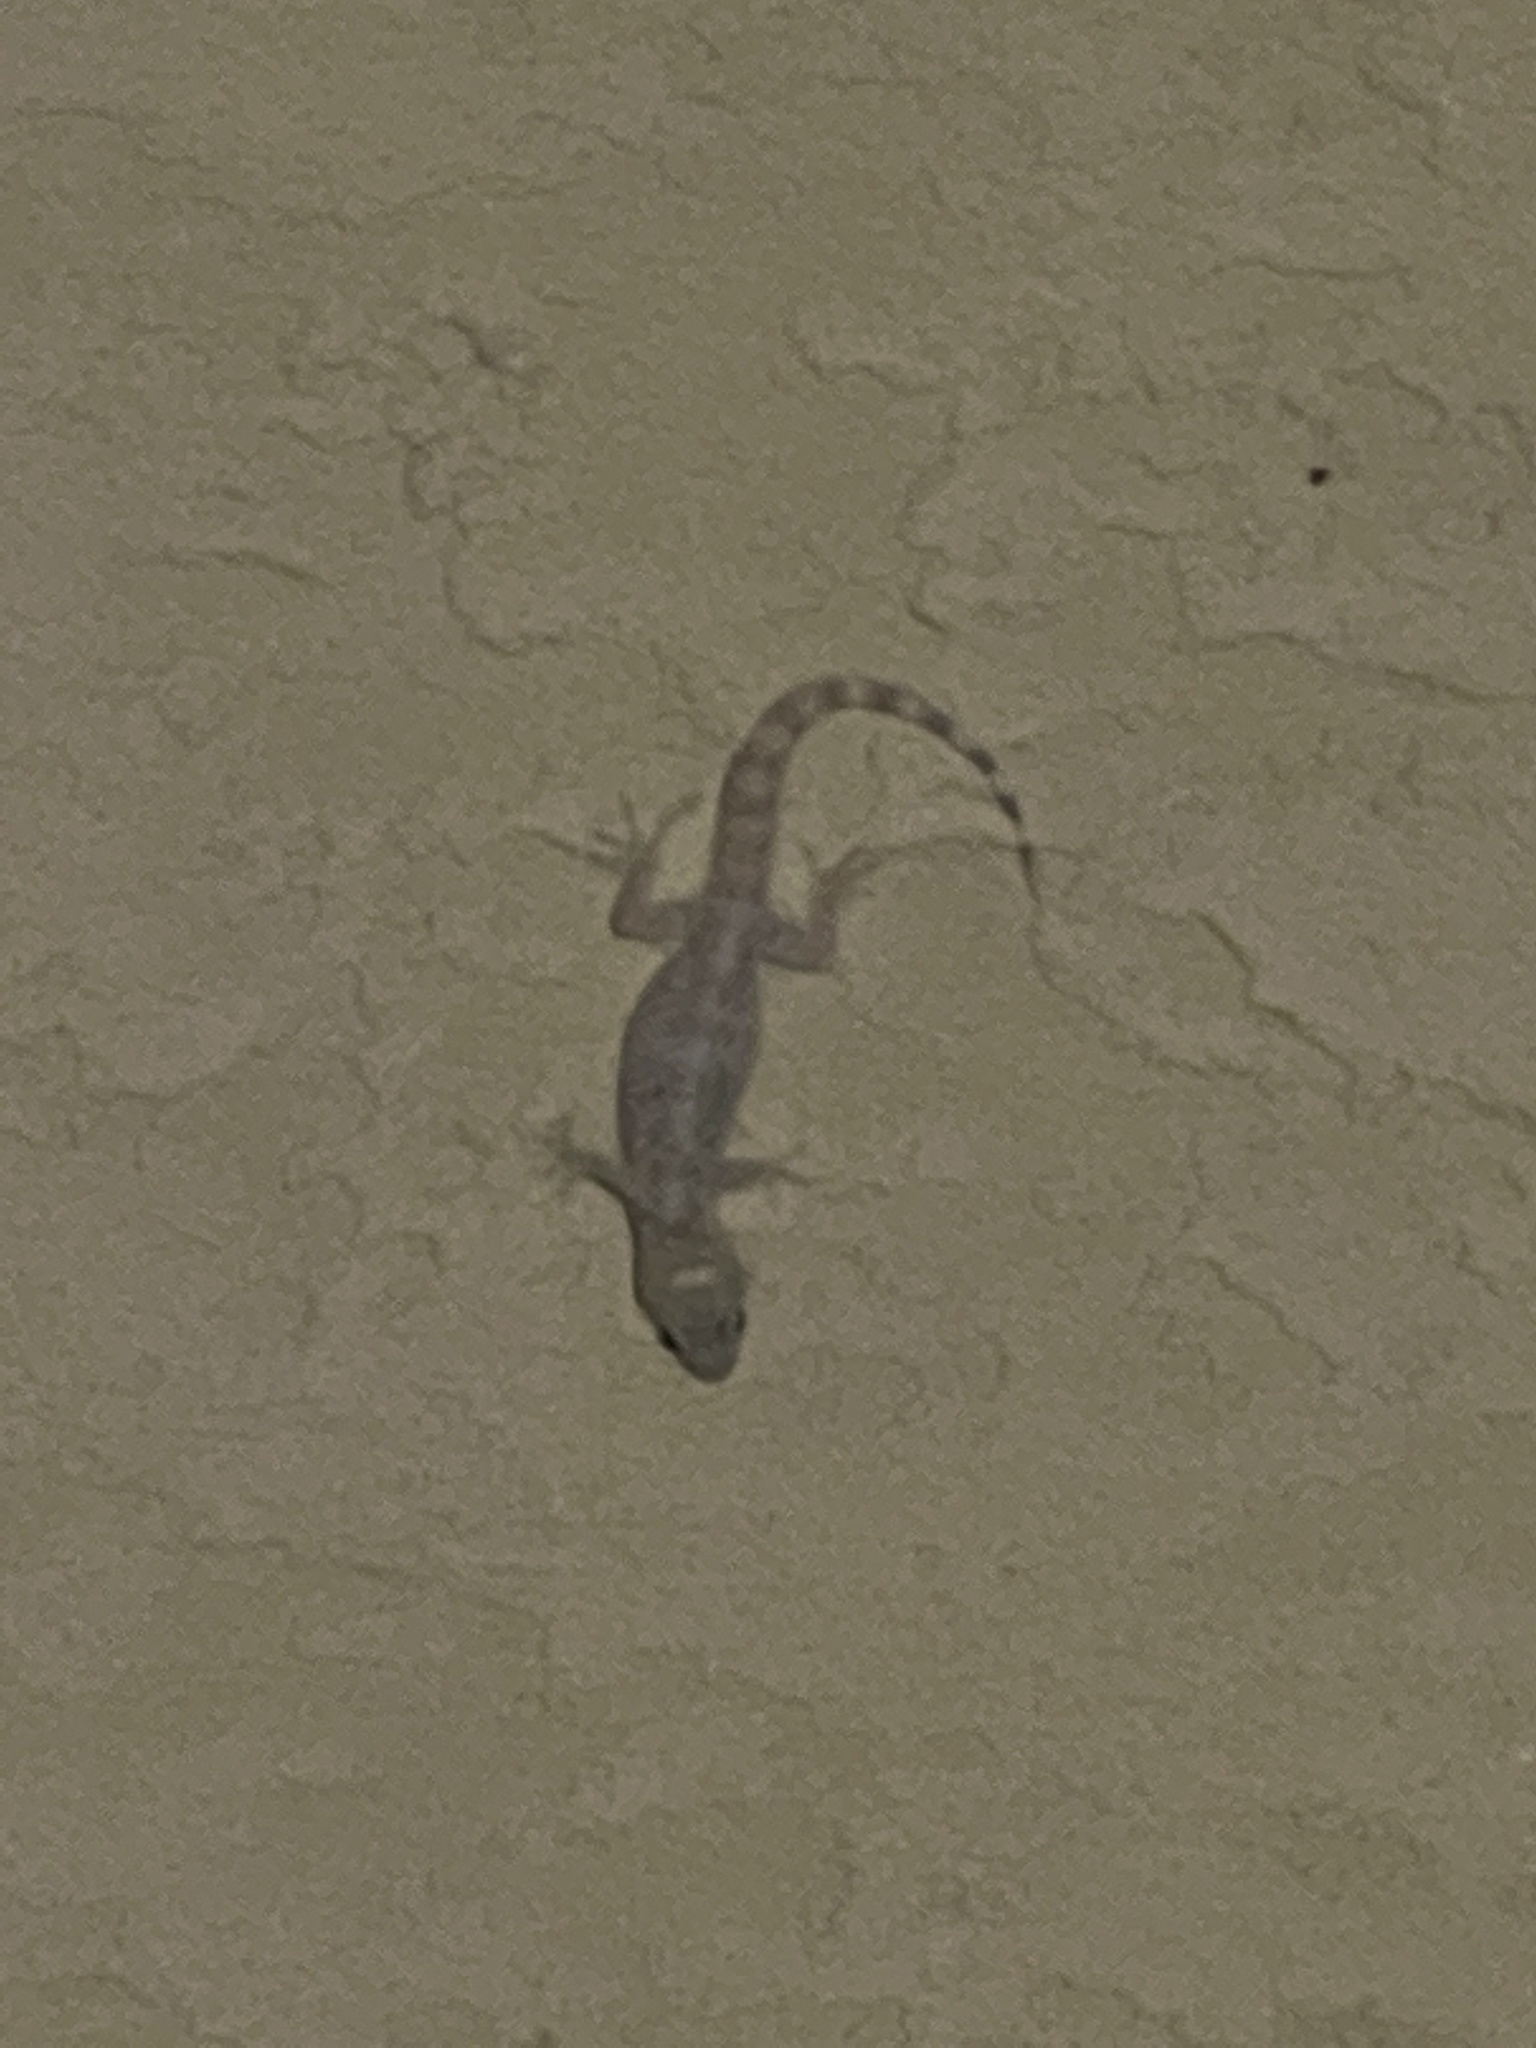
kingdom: Animalia
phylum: Chordata
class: Squamata
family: Gekkonidae
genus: Hemidactylus
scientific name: Hemidactylus turcicus
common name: Turkish gecko
